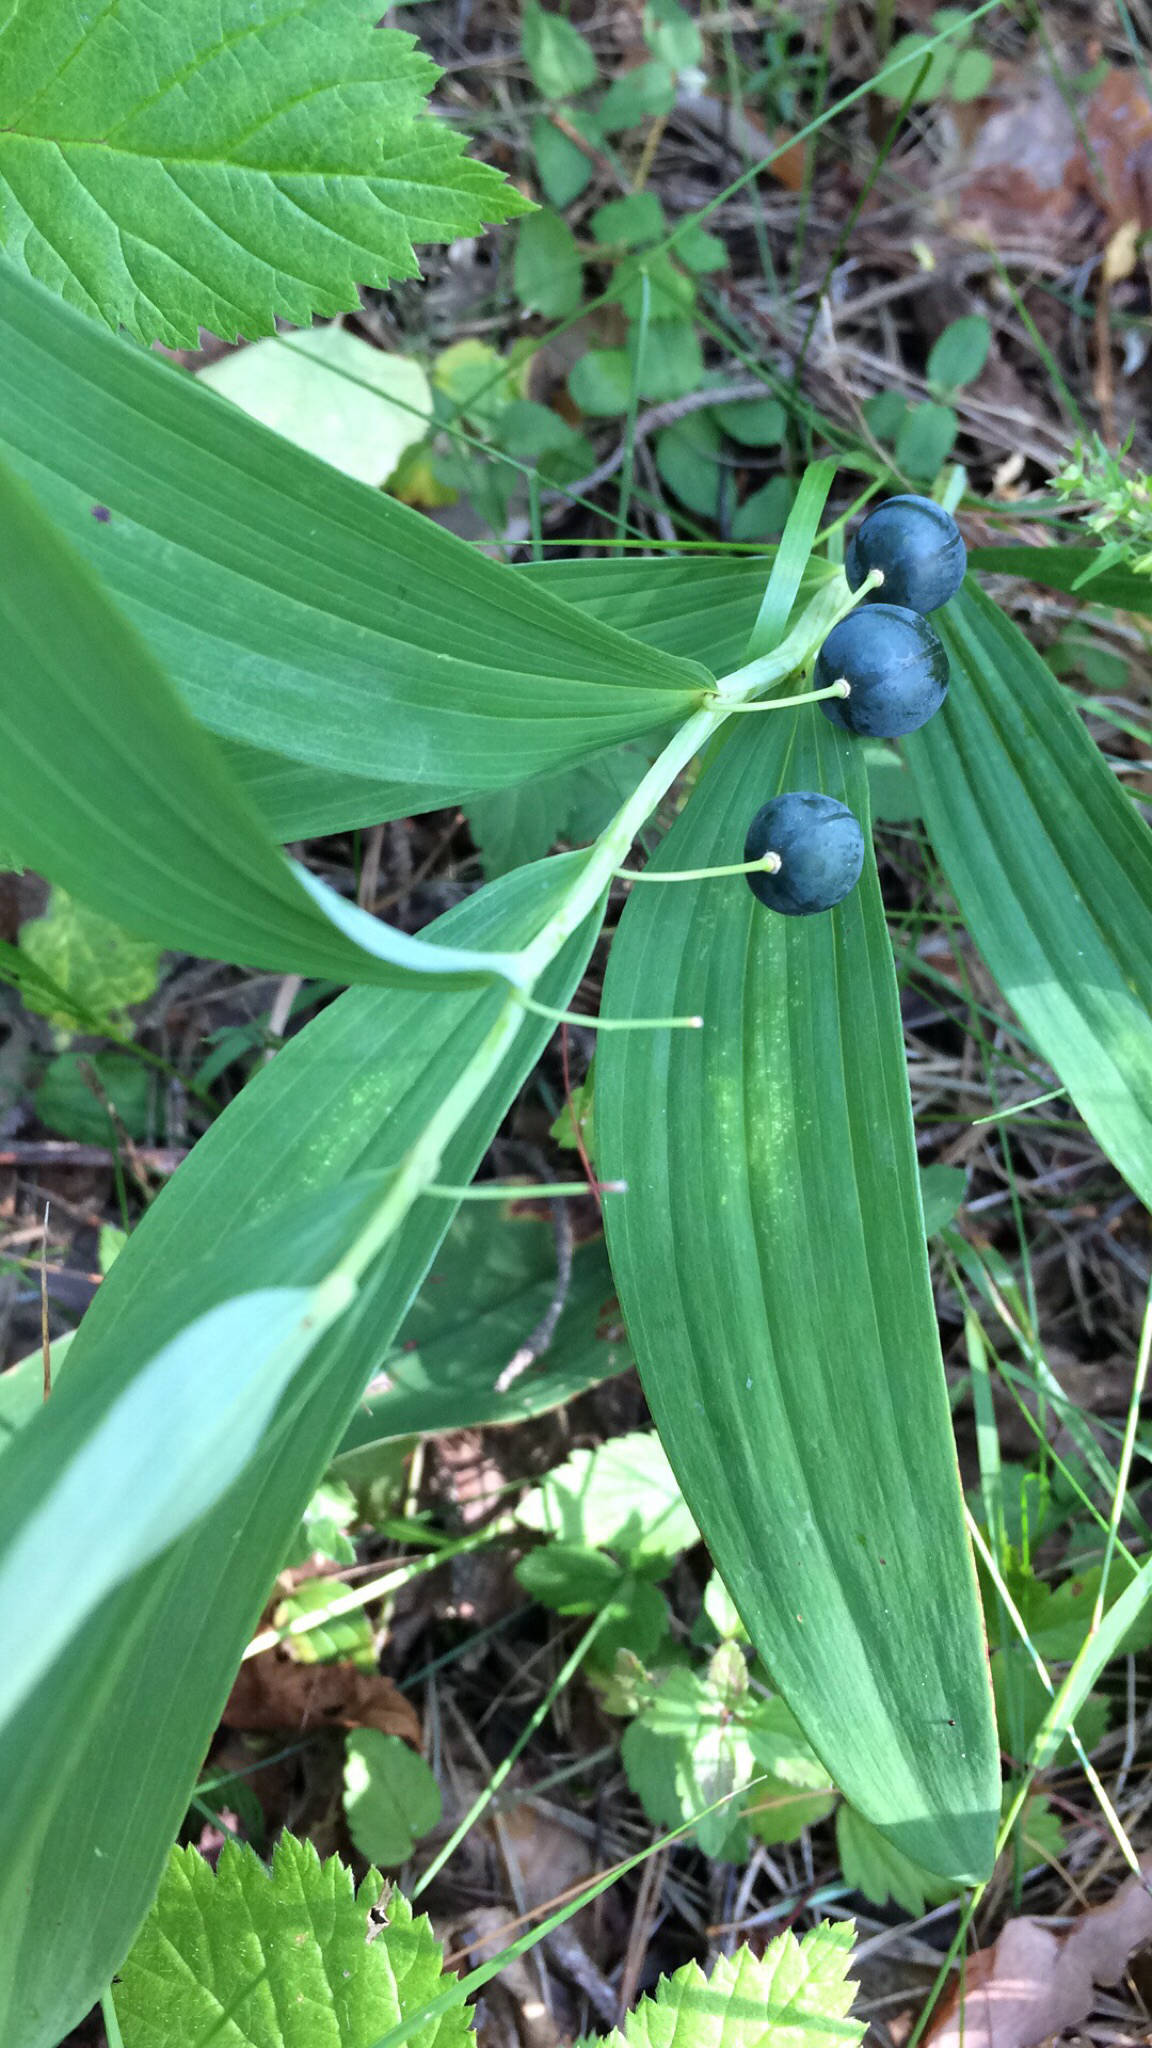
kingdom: Plantae
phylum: Tracheophyta
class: Liliopsida
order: Asparagales
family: Asparagaceae
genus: Polygonatum
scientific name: Polygonatum odoratum
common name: Angular solomon's-seal
